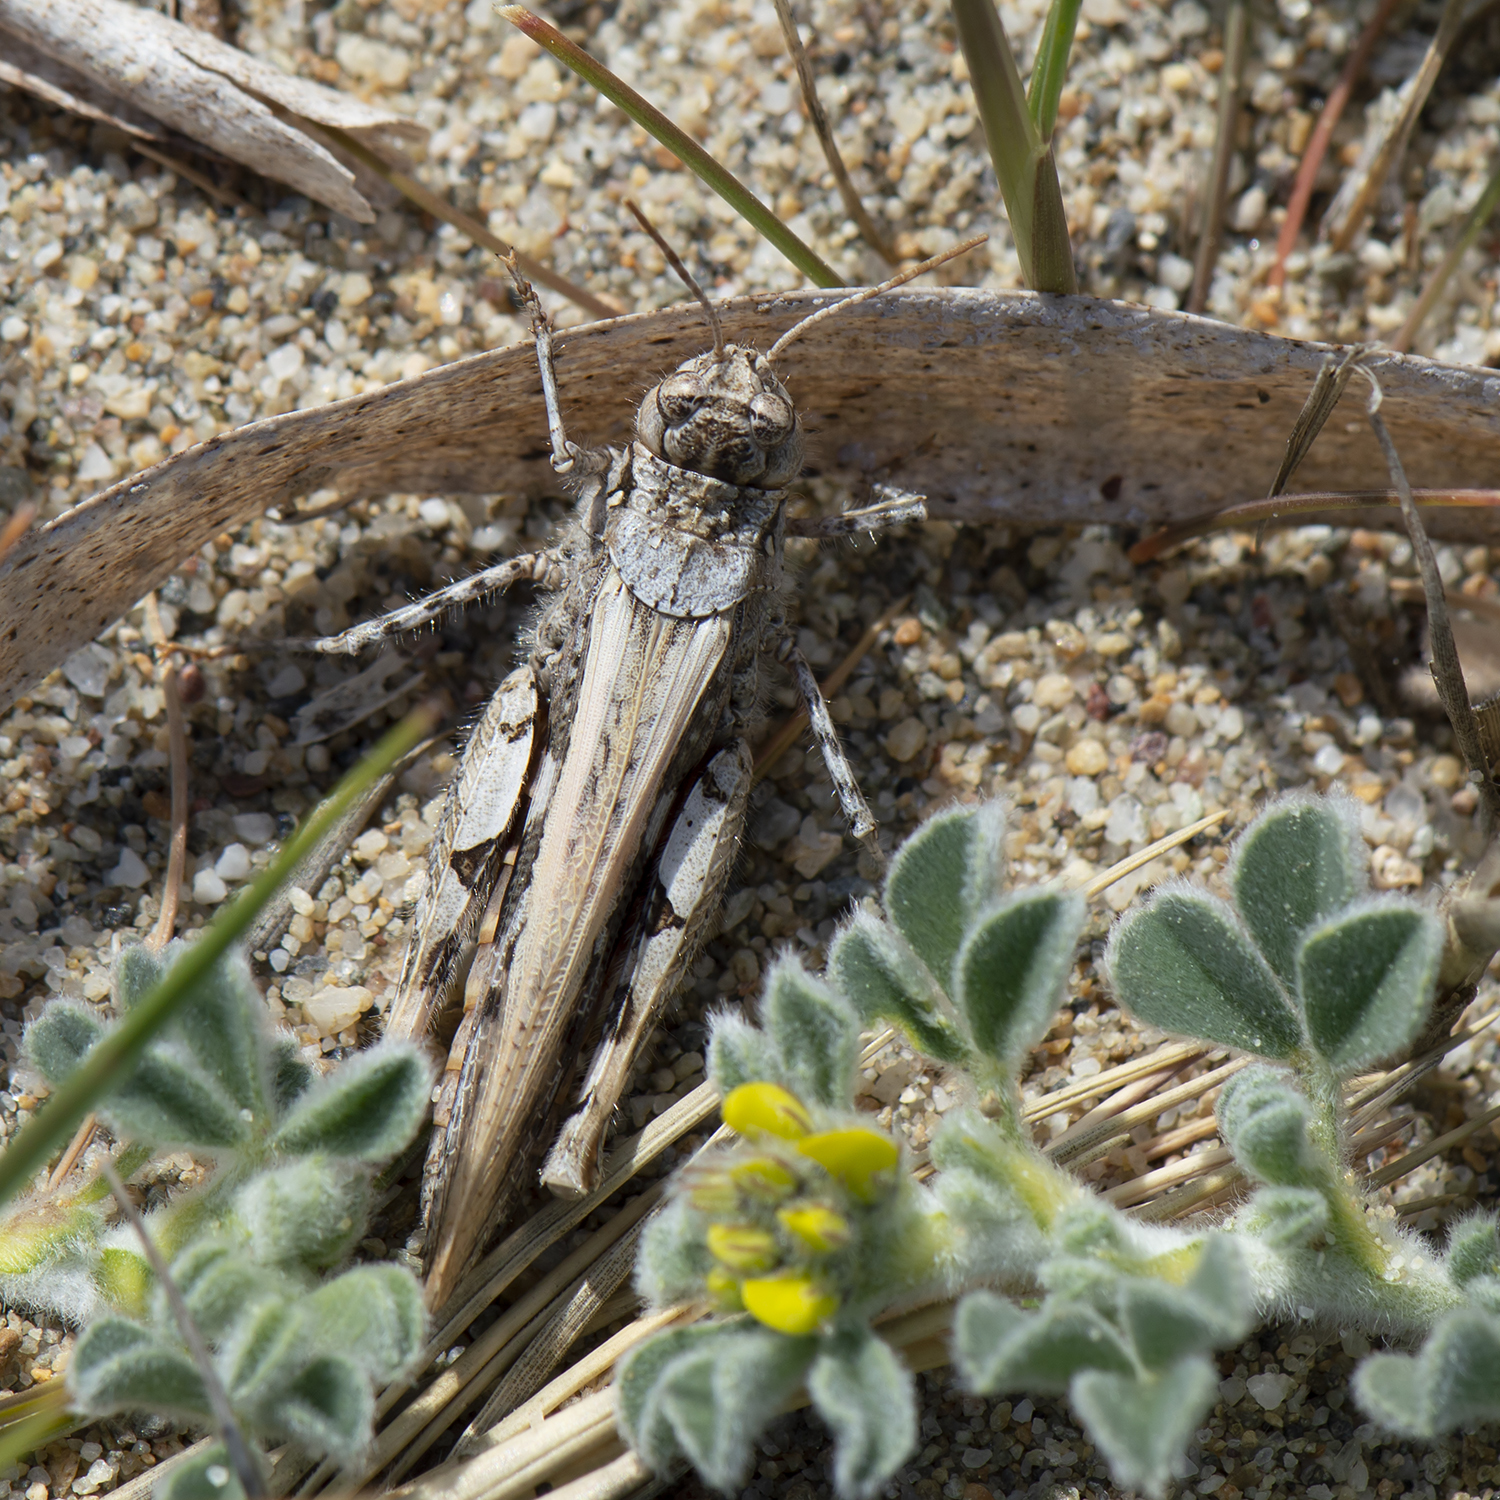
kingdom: Animalia
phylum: Arthropoda
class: Insecta
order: Orthoptera
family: Acrididae
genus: Acrotylus
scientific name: Acrotylus insubricus
